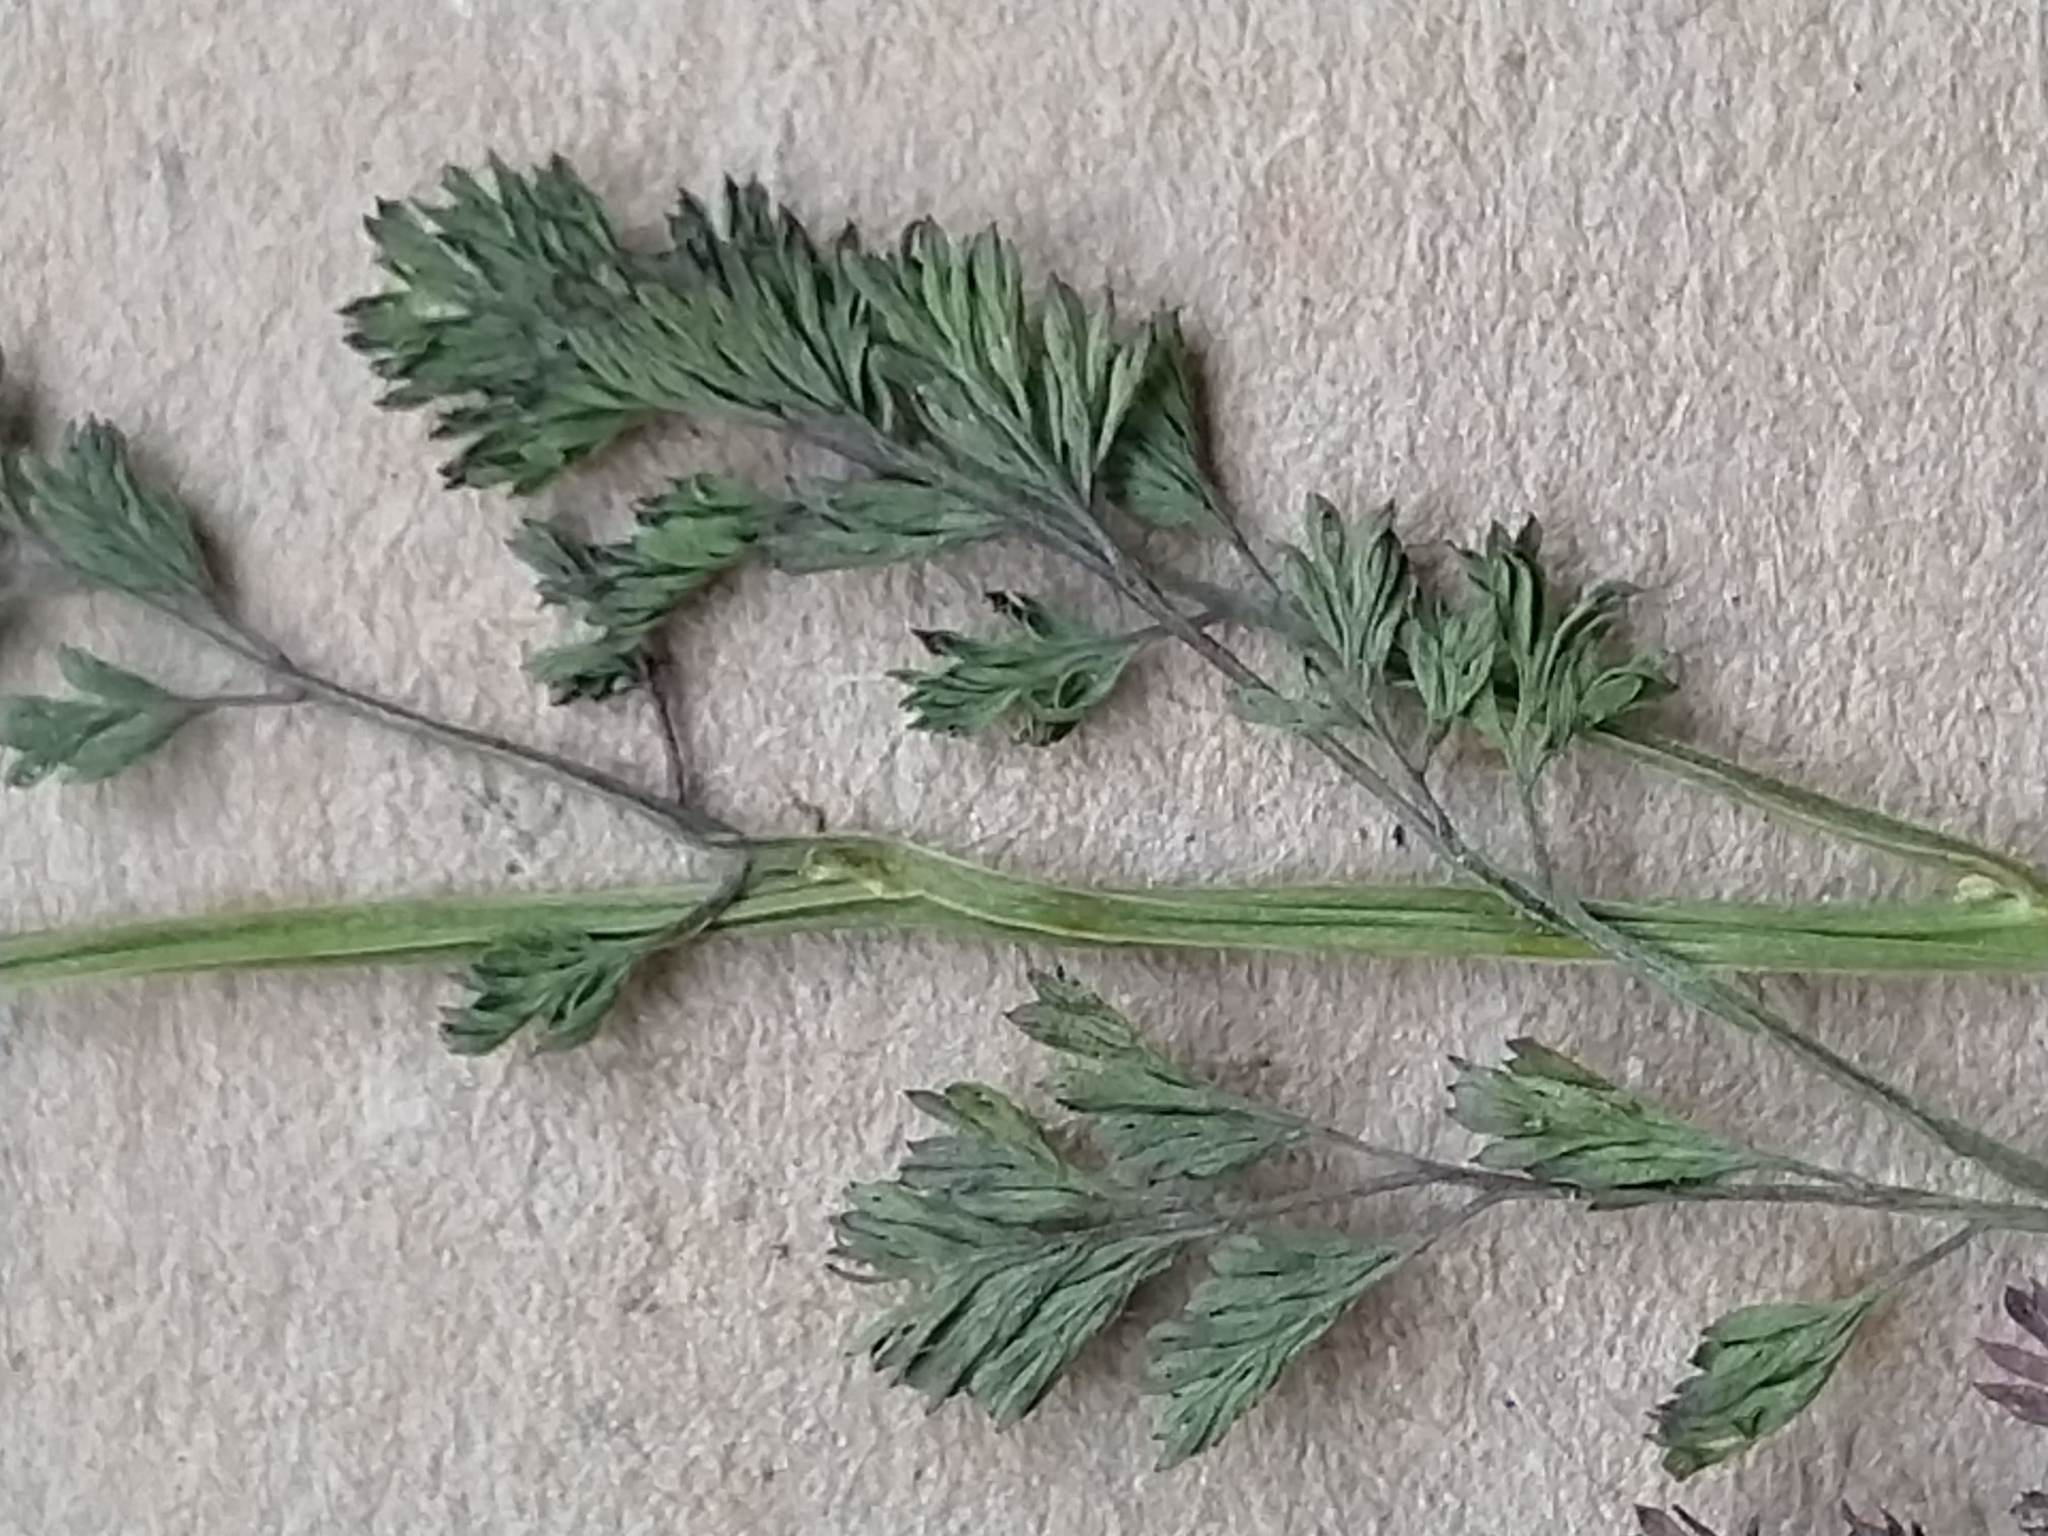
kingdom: Plantae
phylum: Tracheophyta
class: Magnoliopsida
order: Ranunculales
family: Papaveraceae
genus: Fumaria
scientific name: Fumaria densiflora
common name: Dense-flowered fumitory
